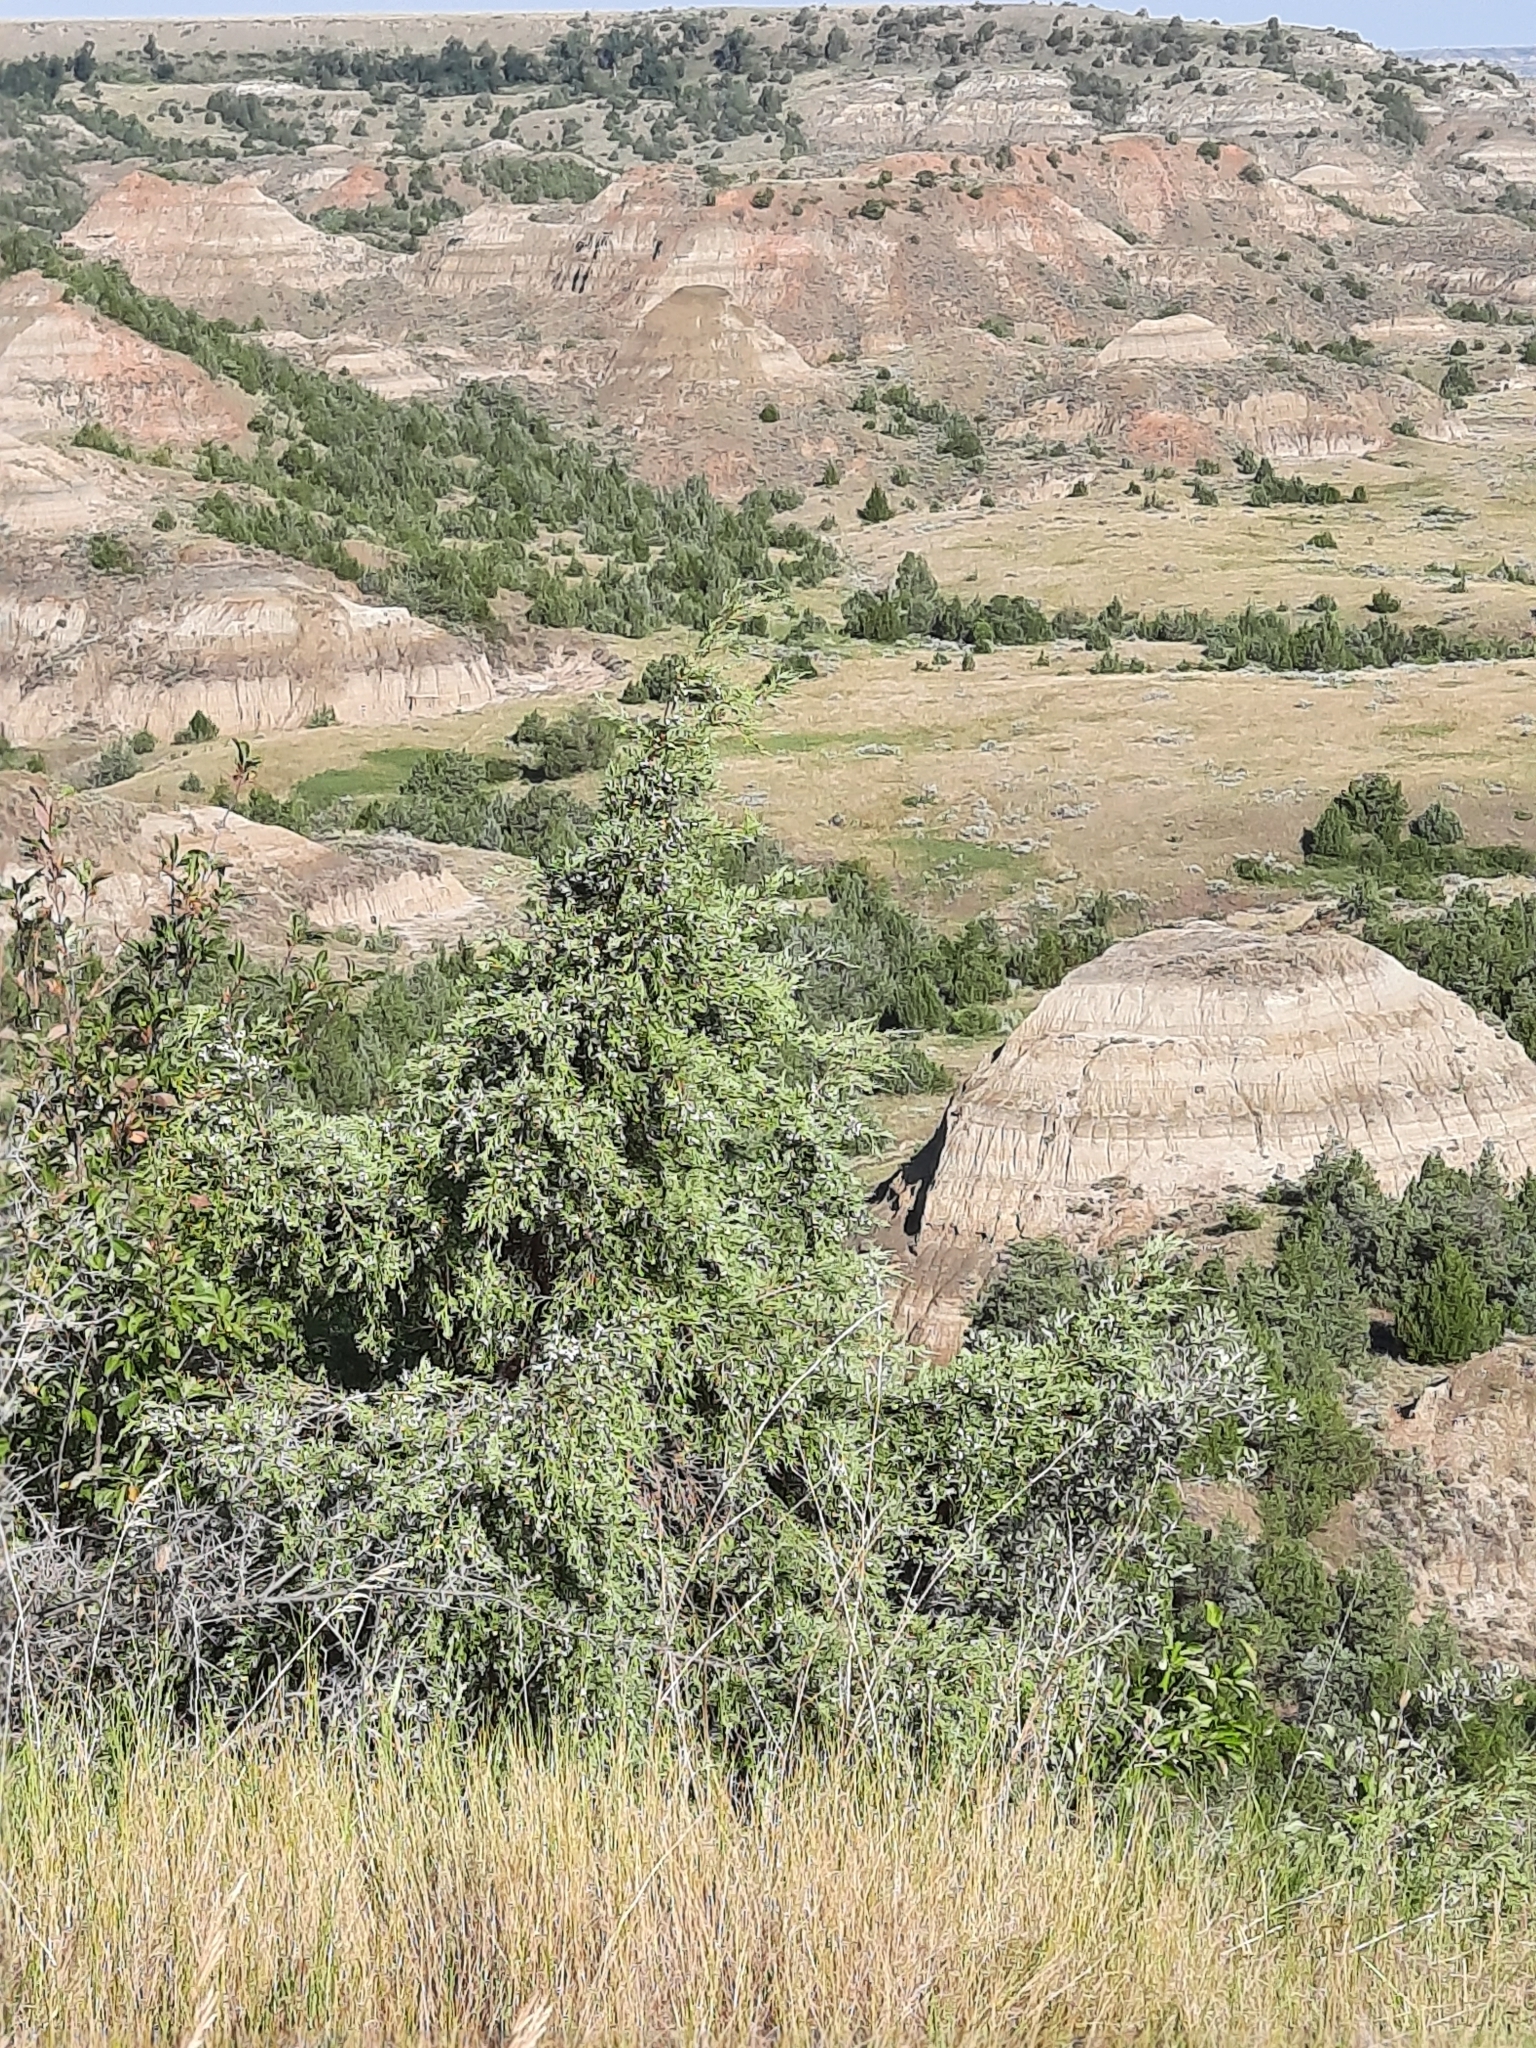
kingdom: Plantae
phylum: Tracheophyta
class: Pinopsida
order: Pinales
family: Cupressaceae
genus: Juniperus
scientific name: Juniperus scopulorum
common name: Rocky mountain juniper
